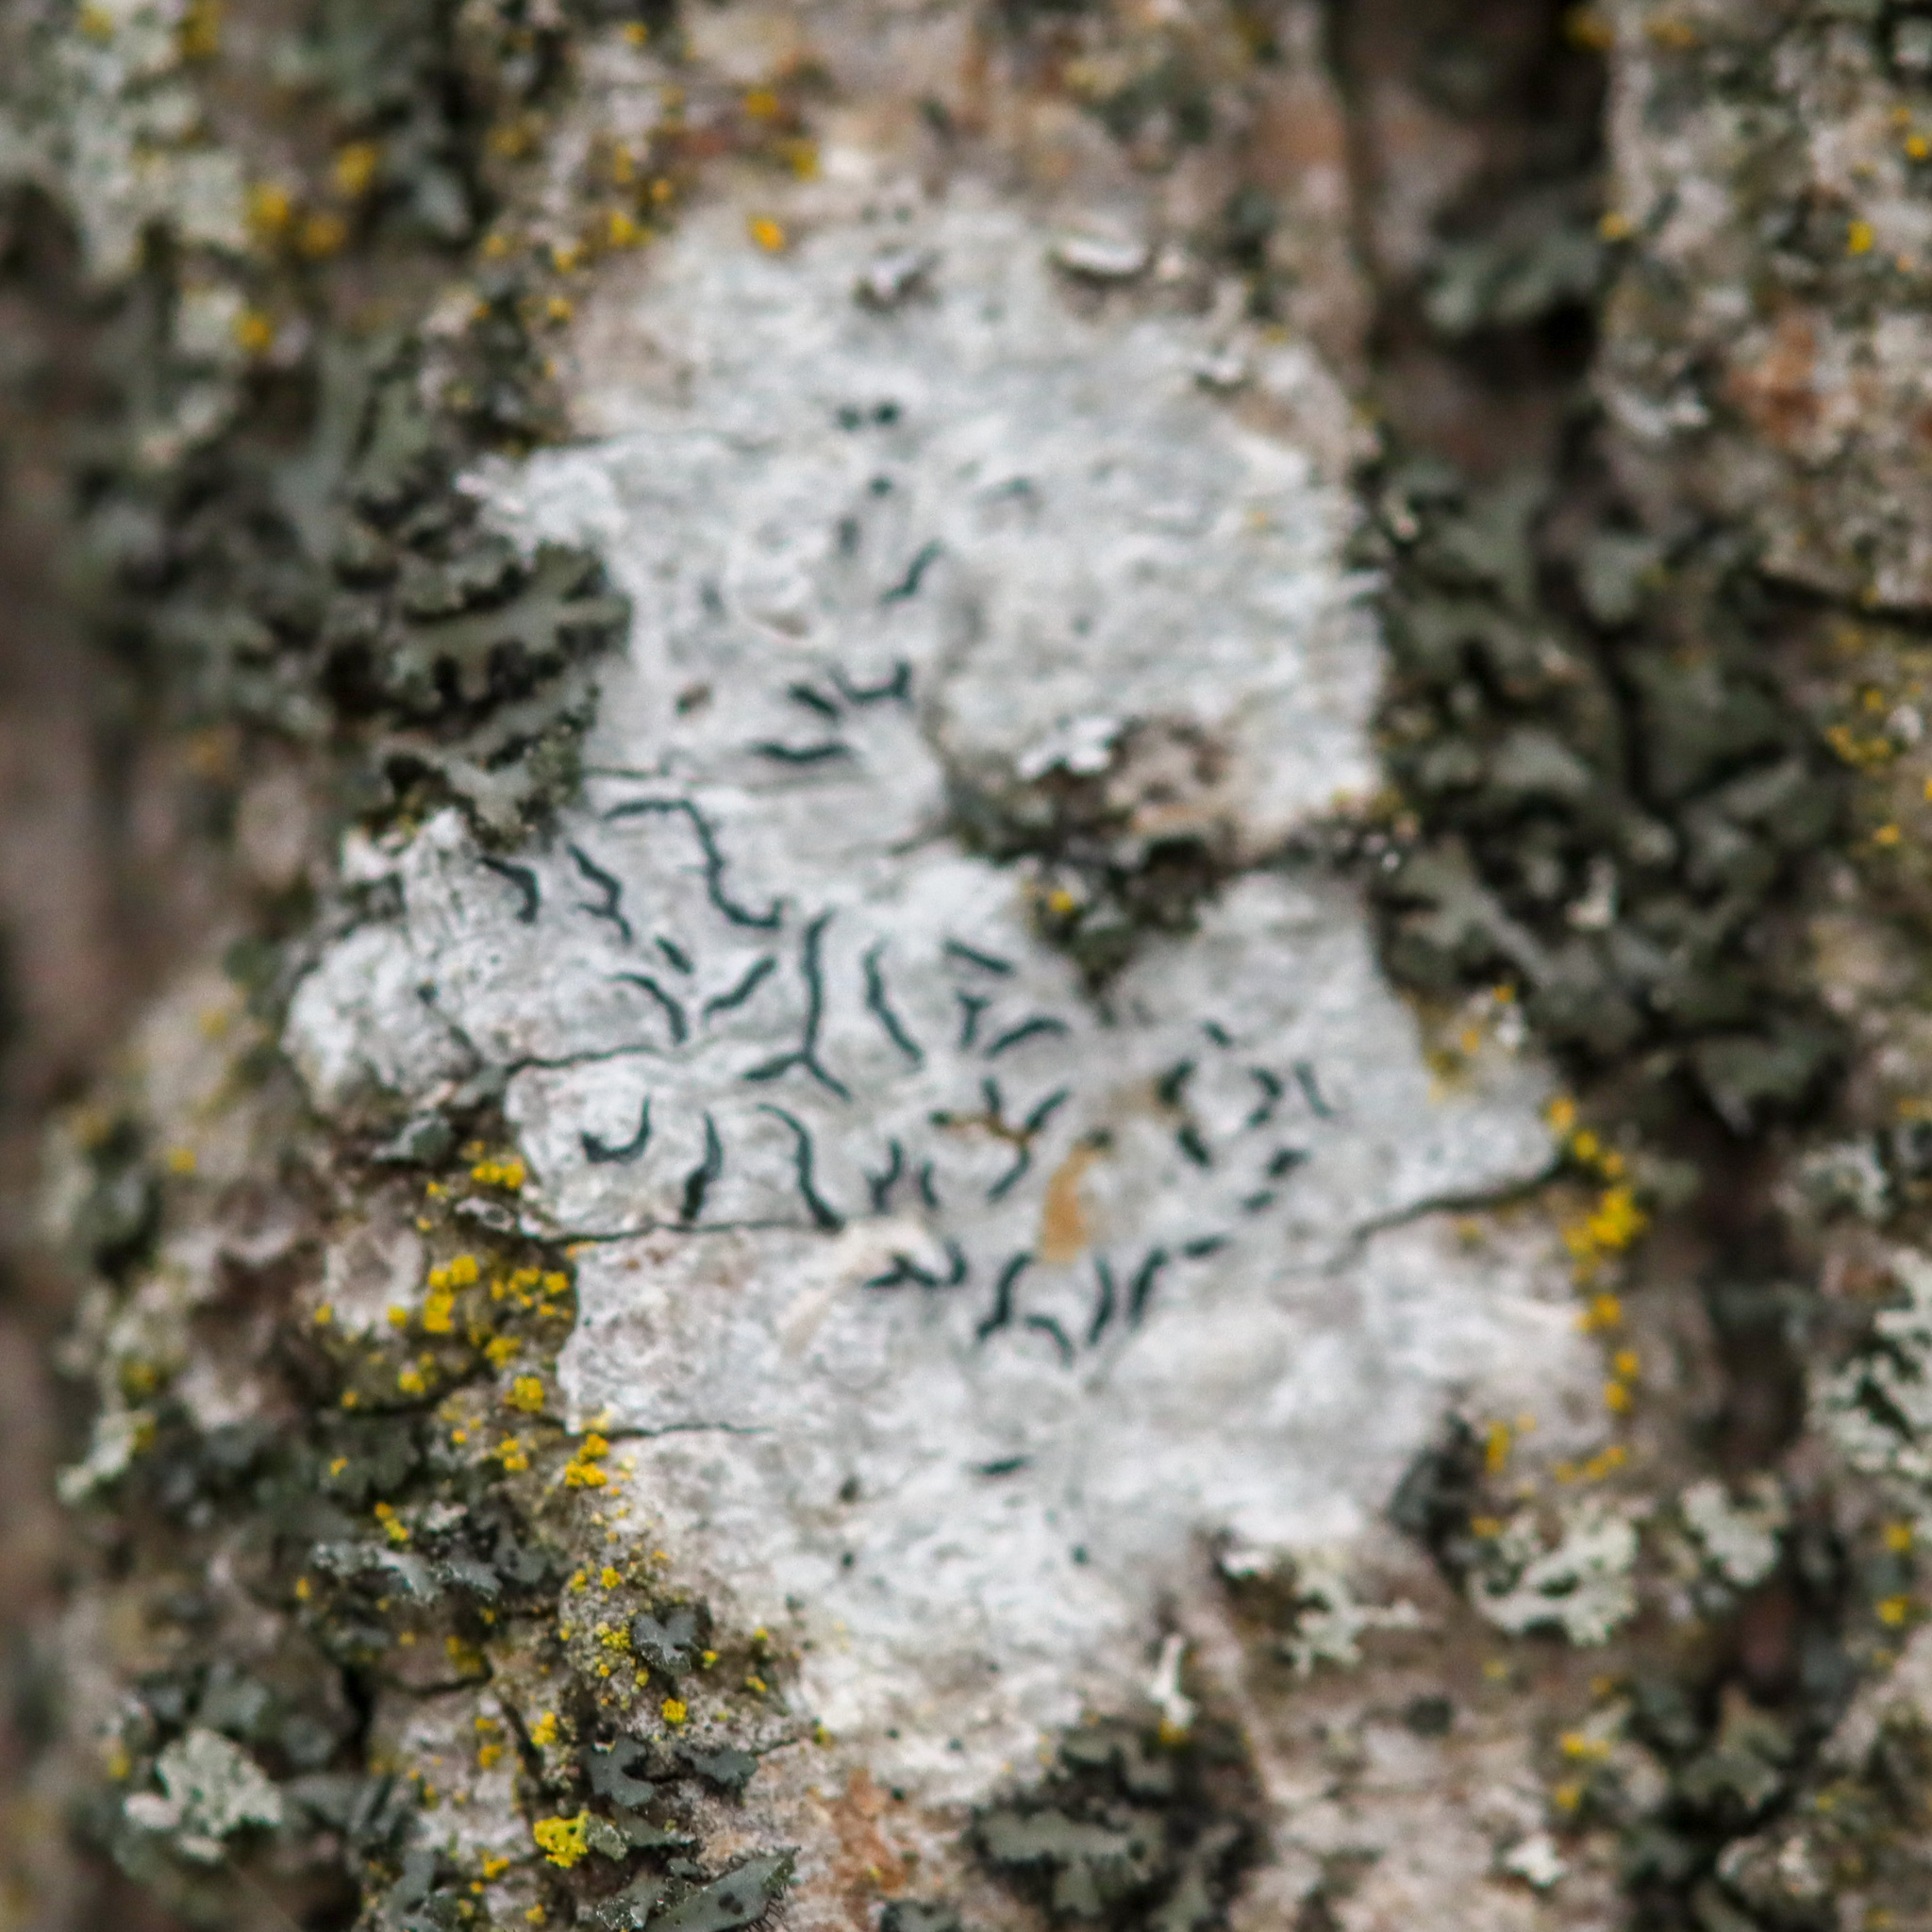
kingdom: Fungi
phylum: Ascomycota
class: Lecanoromycetes
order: Ostropales
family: Graphidaceae
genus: Graphis
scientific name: Graphis scripta
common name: Script lichen
